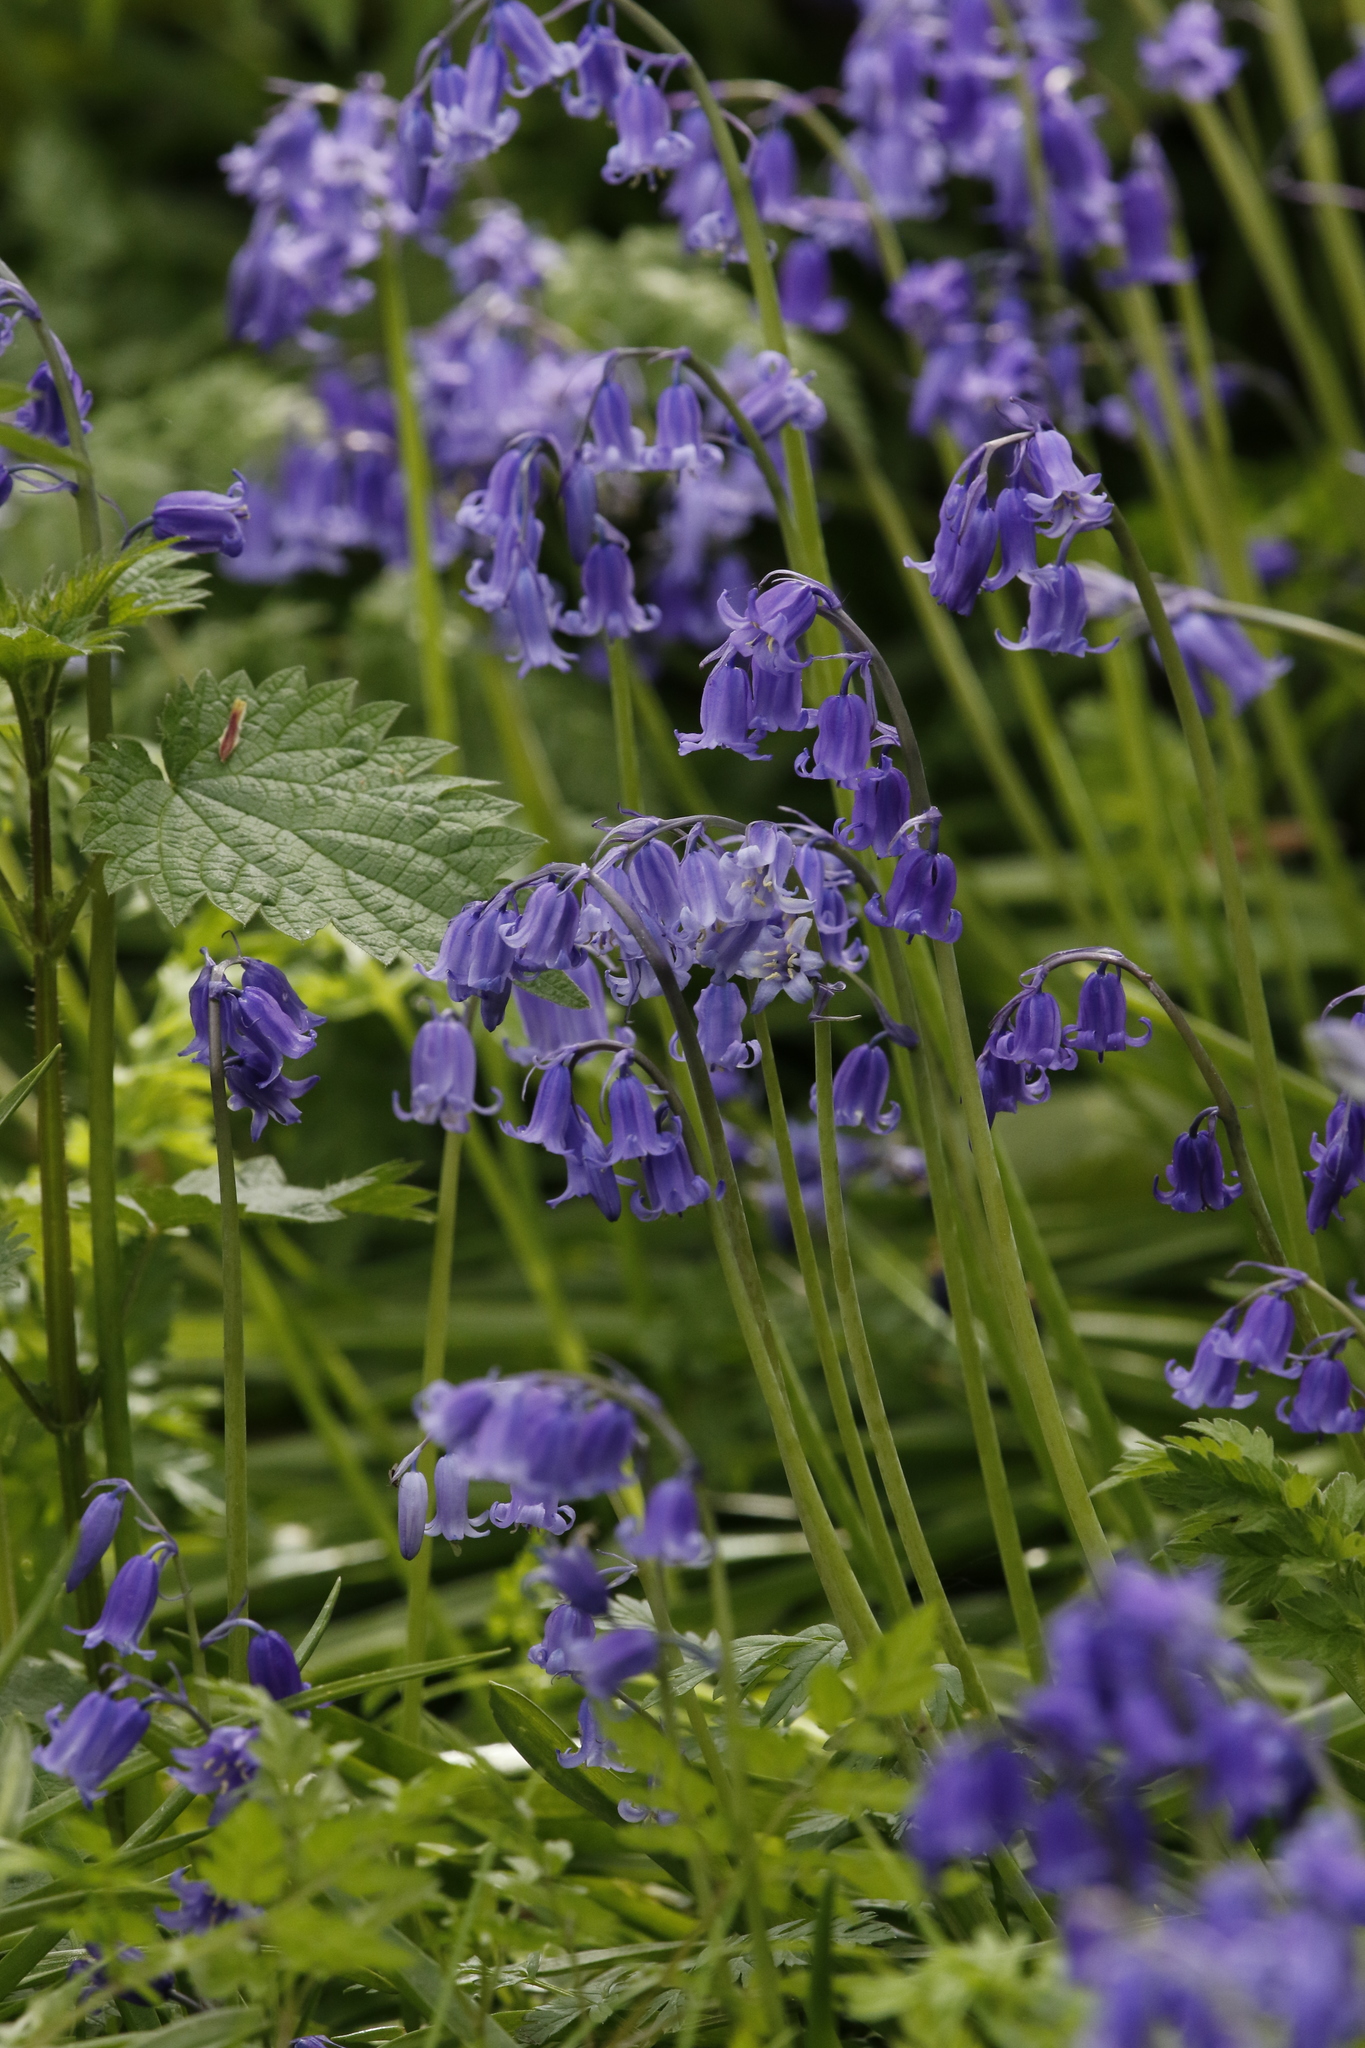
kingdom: Plantae
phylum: Tracheophyta
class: Liliopsida
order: Asparagales
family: Asparagaceae
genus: Hyacinthoides
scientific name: Hyacinthoides non-scripta
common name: Bluebell
